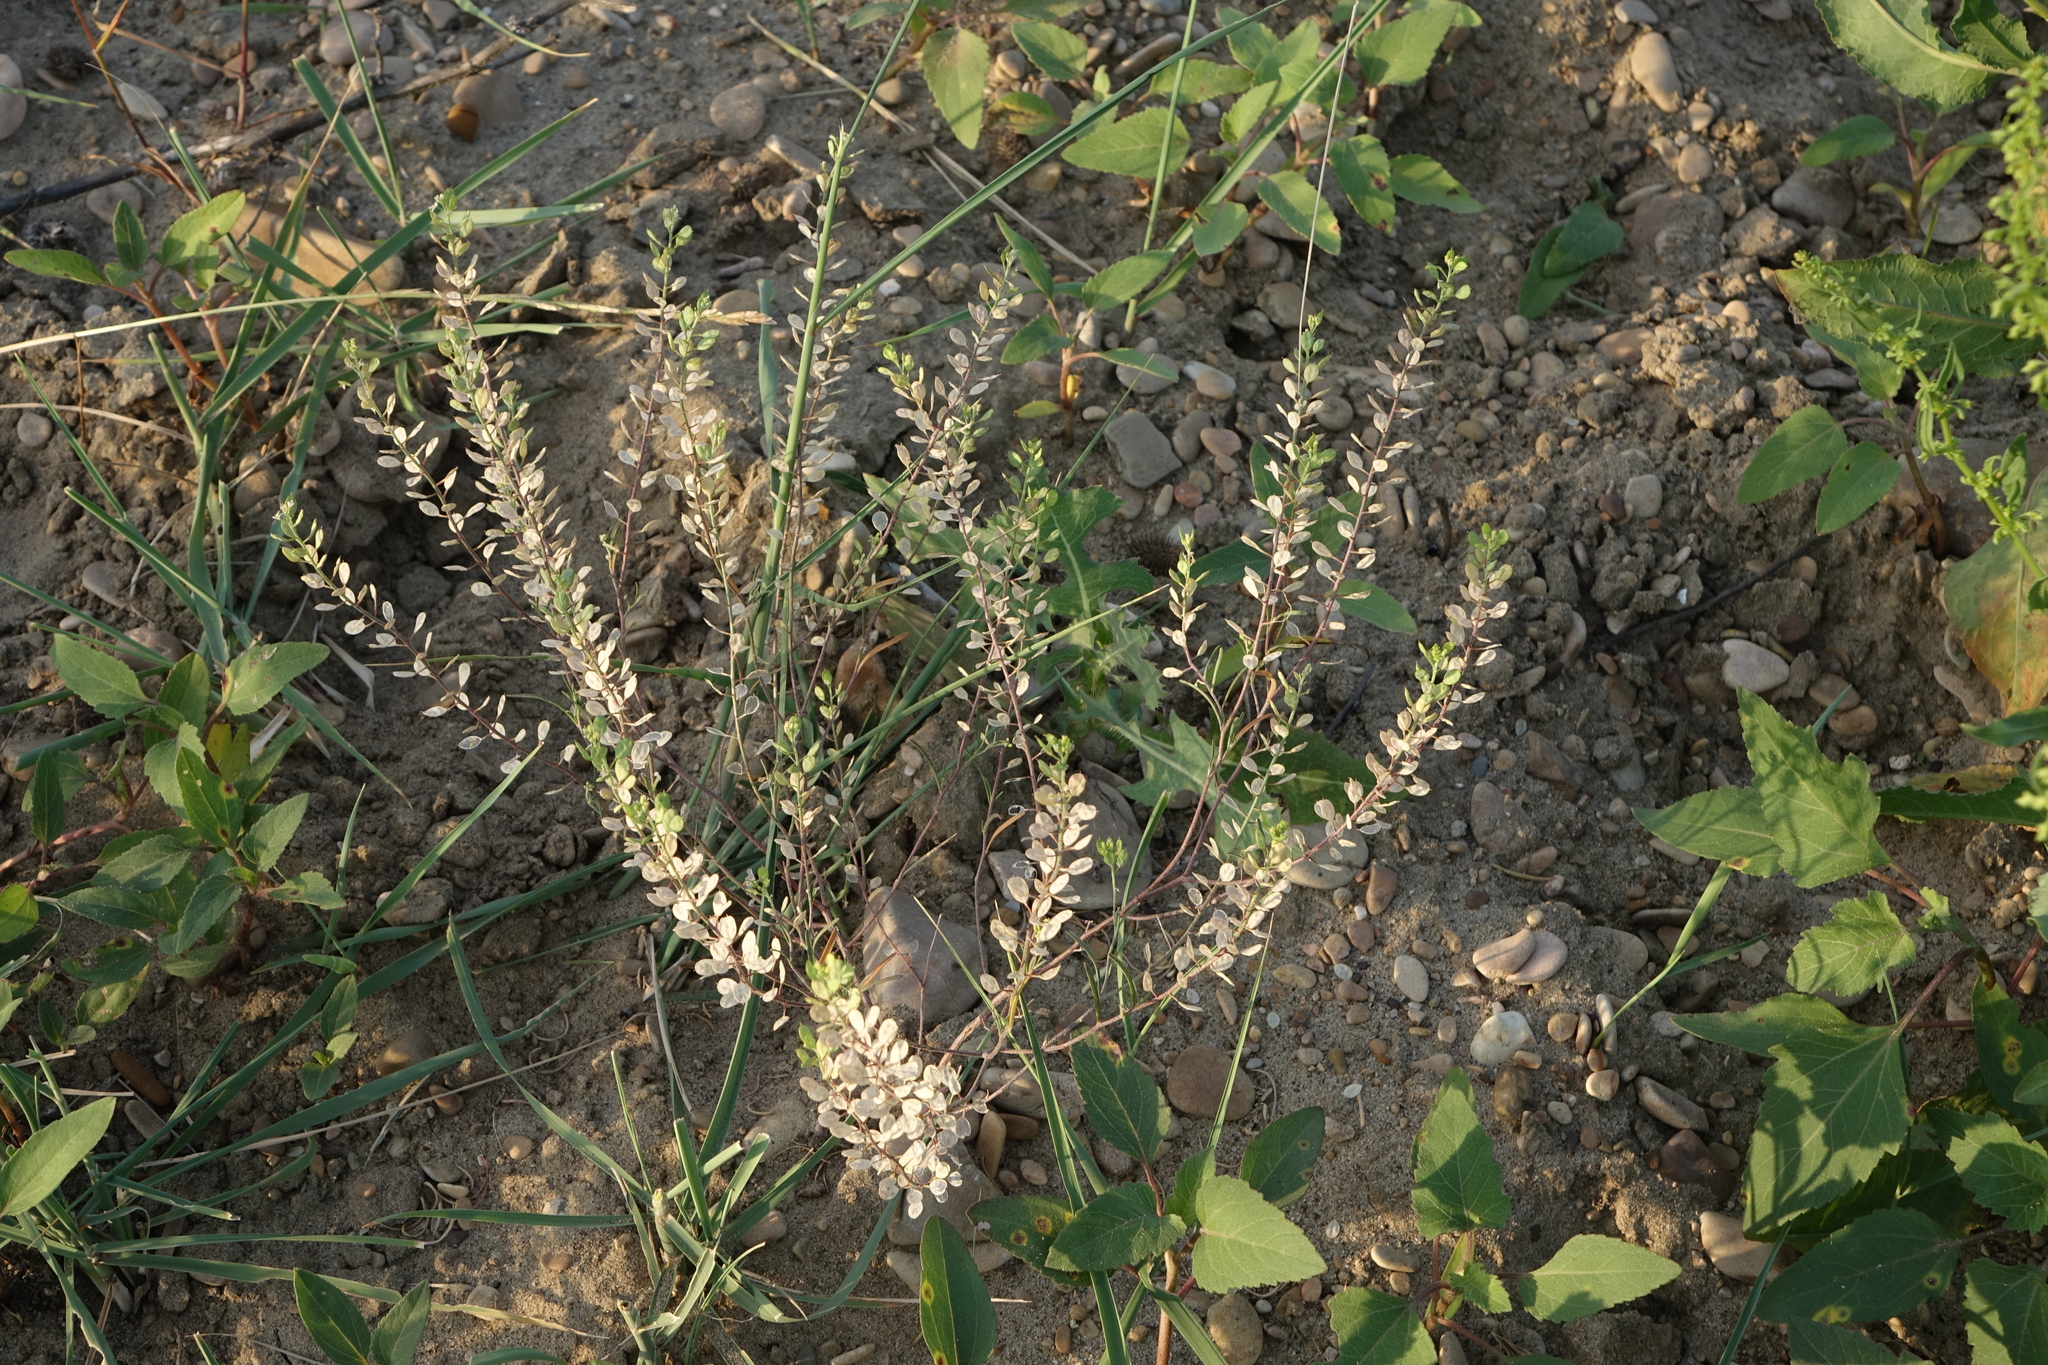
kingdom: Plantae
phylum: Tracheophyta
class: Magnoliopsida
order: Brassicales
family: Brassicaceae
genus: Meniocus
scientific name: Meniocus linifolius
